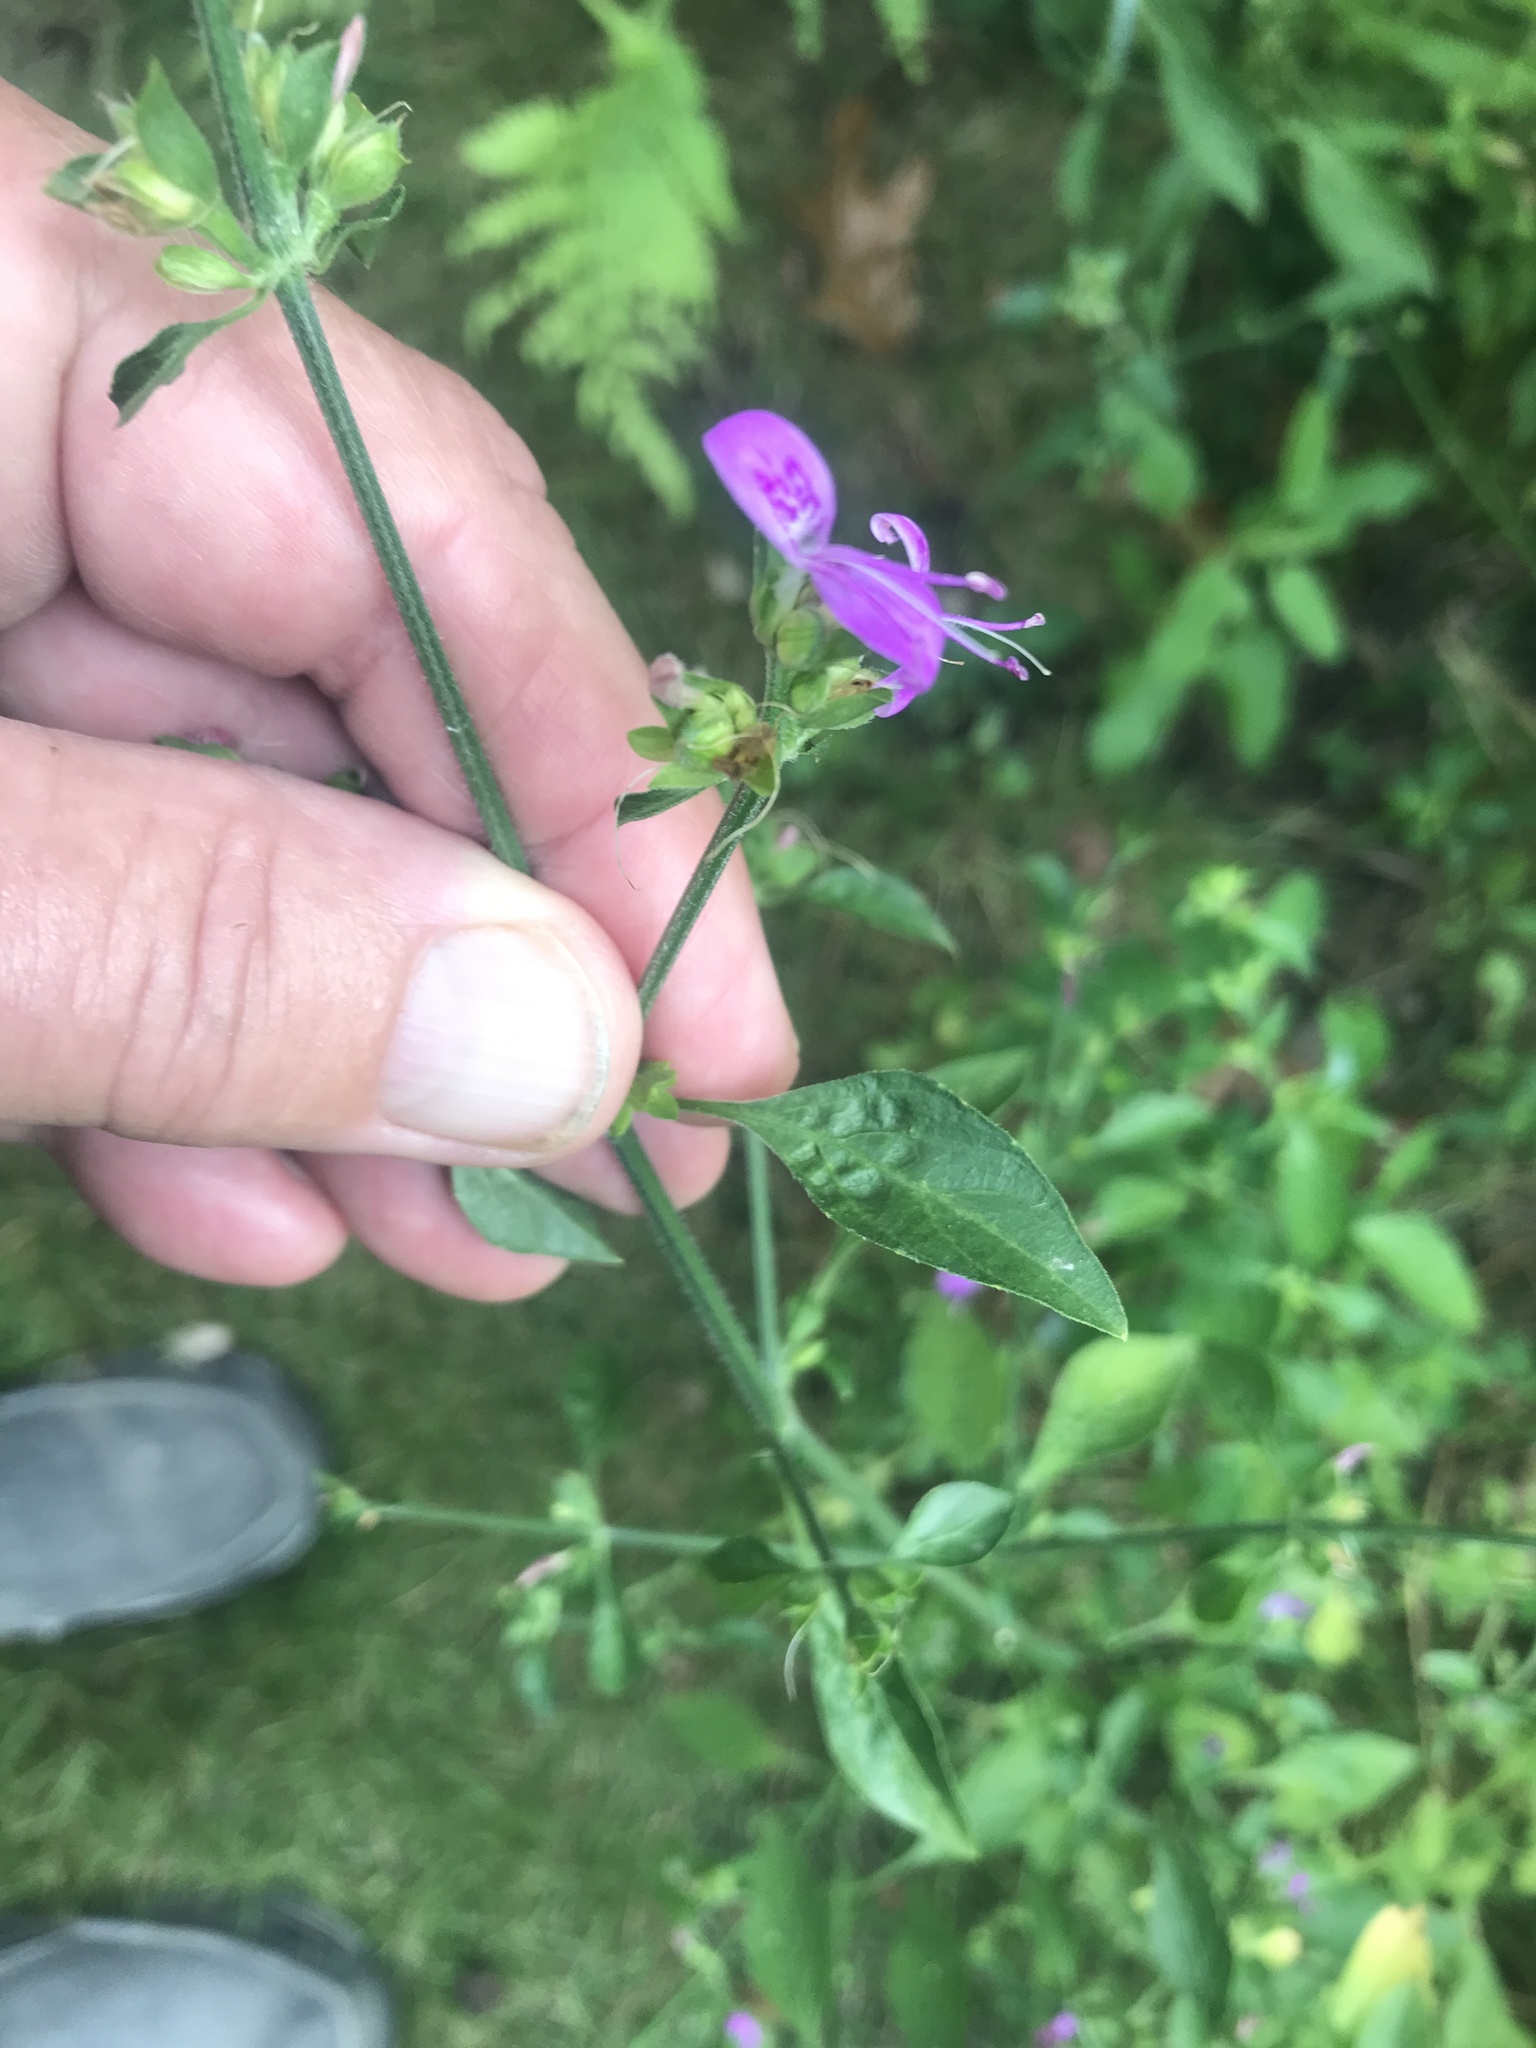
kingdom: Plantae
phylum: Tracheophyta
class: Magnoliopsida
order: Lamiales
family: Acanthaceae
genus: Dicliptera
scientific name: Dicliptera brachiata
